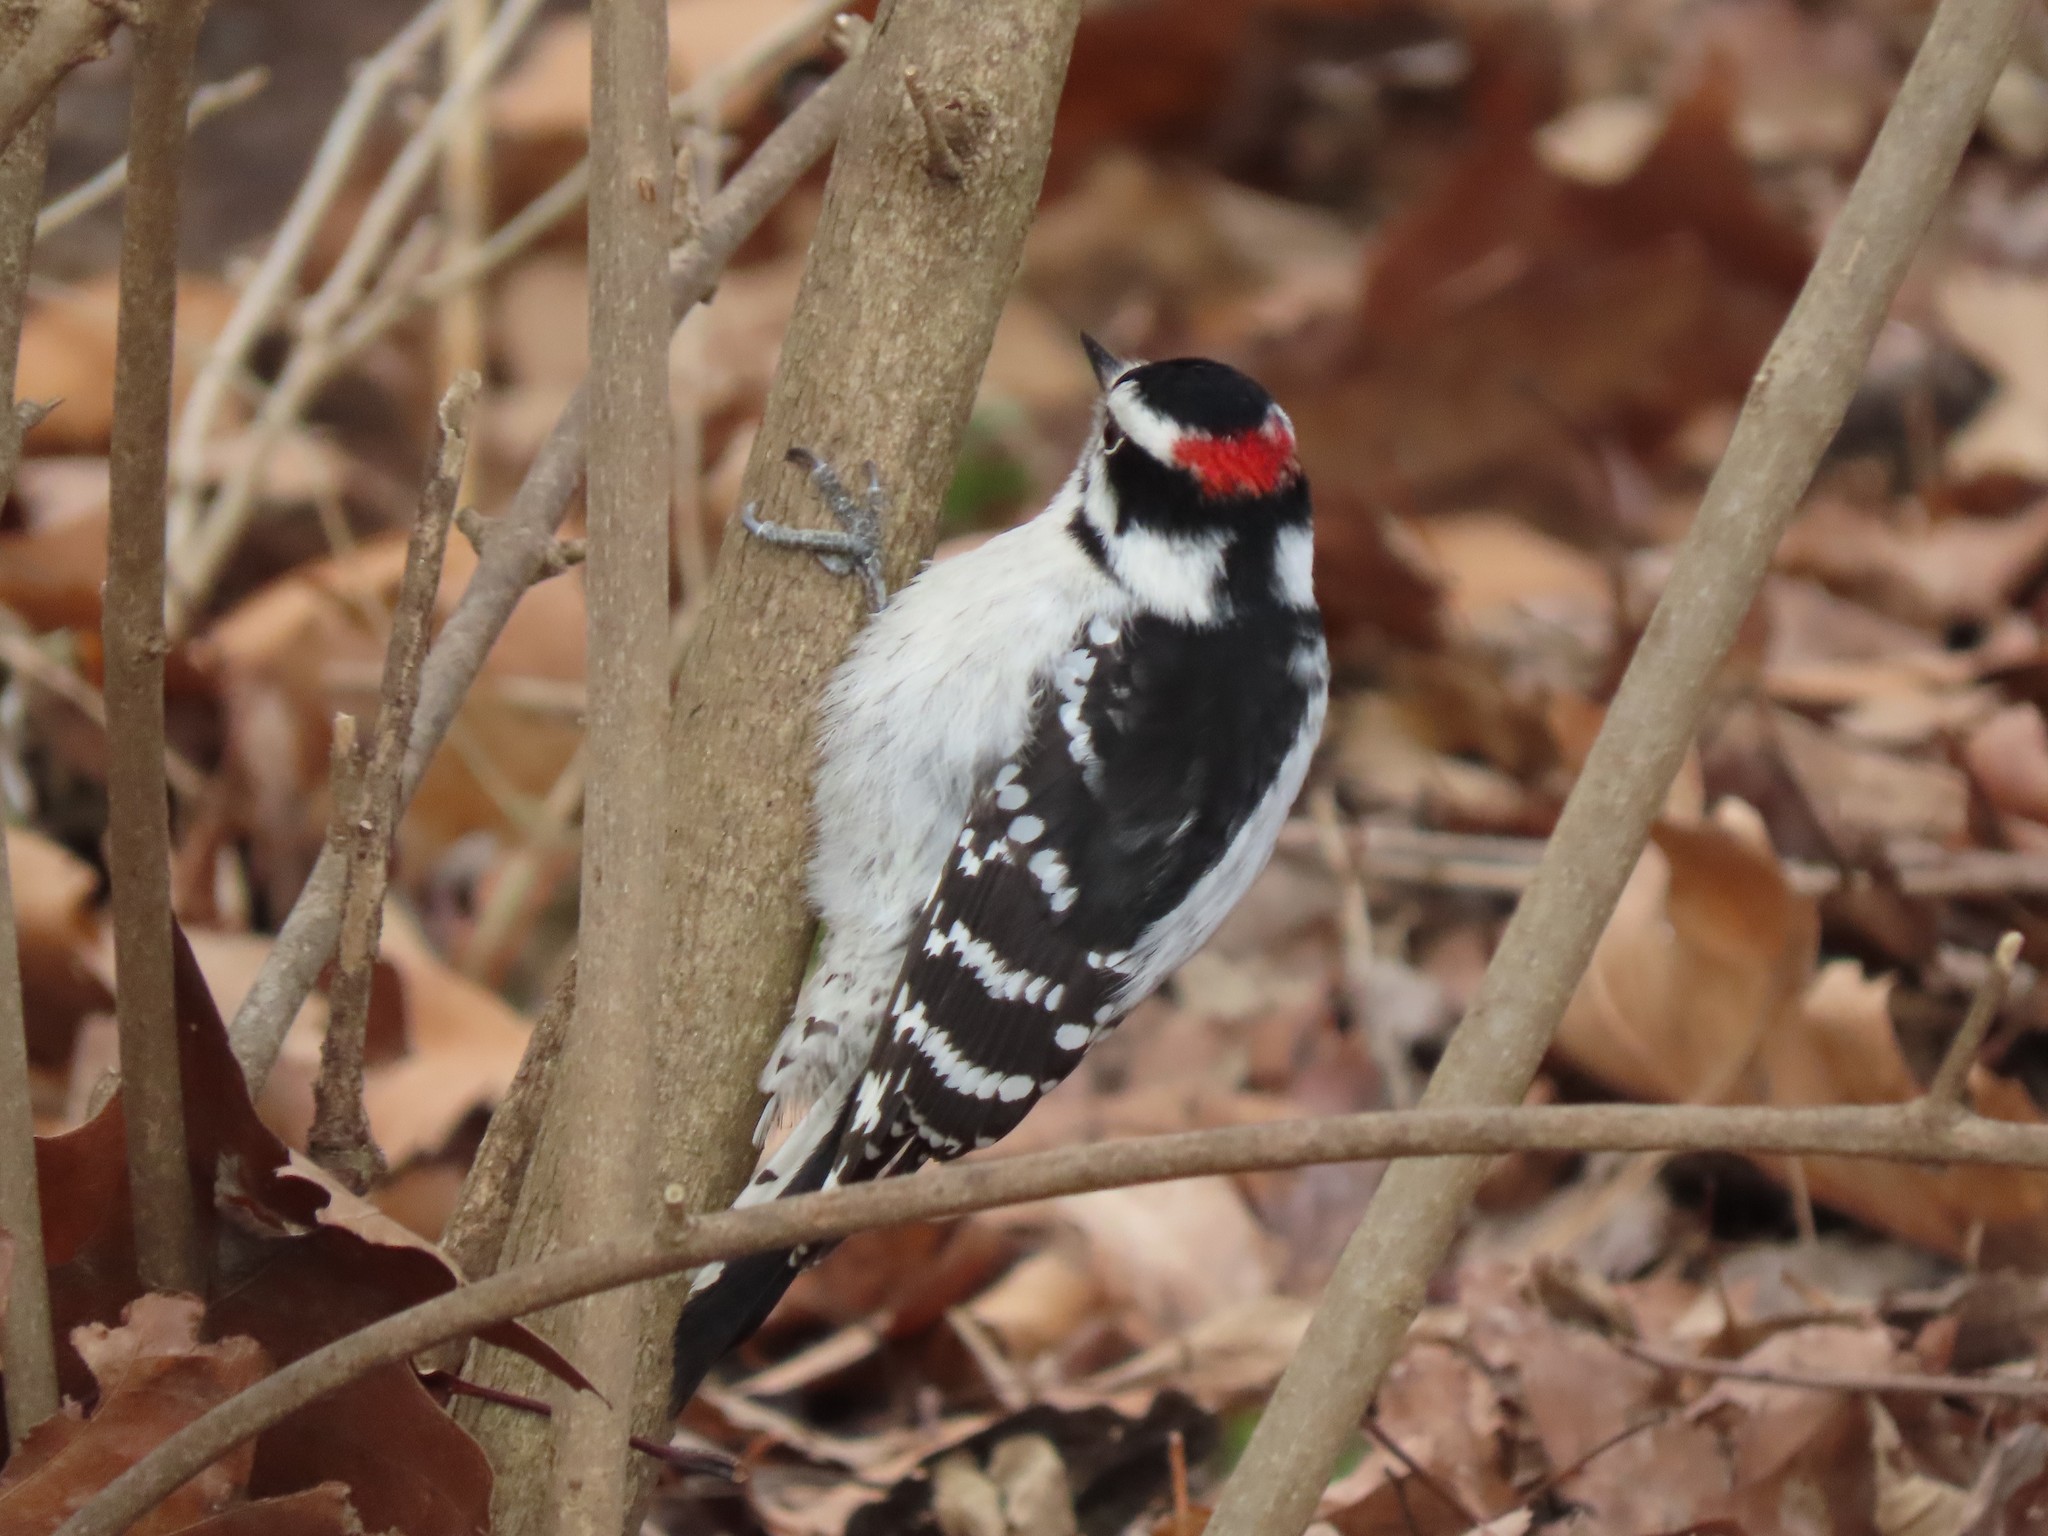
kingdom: Animalia
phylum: Chordata
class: Aves
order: Piciformes
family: Picidae
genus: Dryobates
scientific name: Dryobates pubescens
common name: Downy woodpecker
